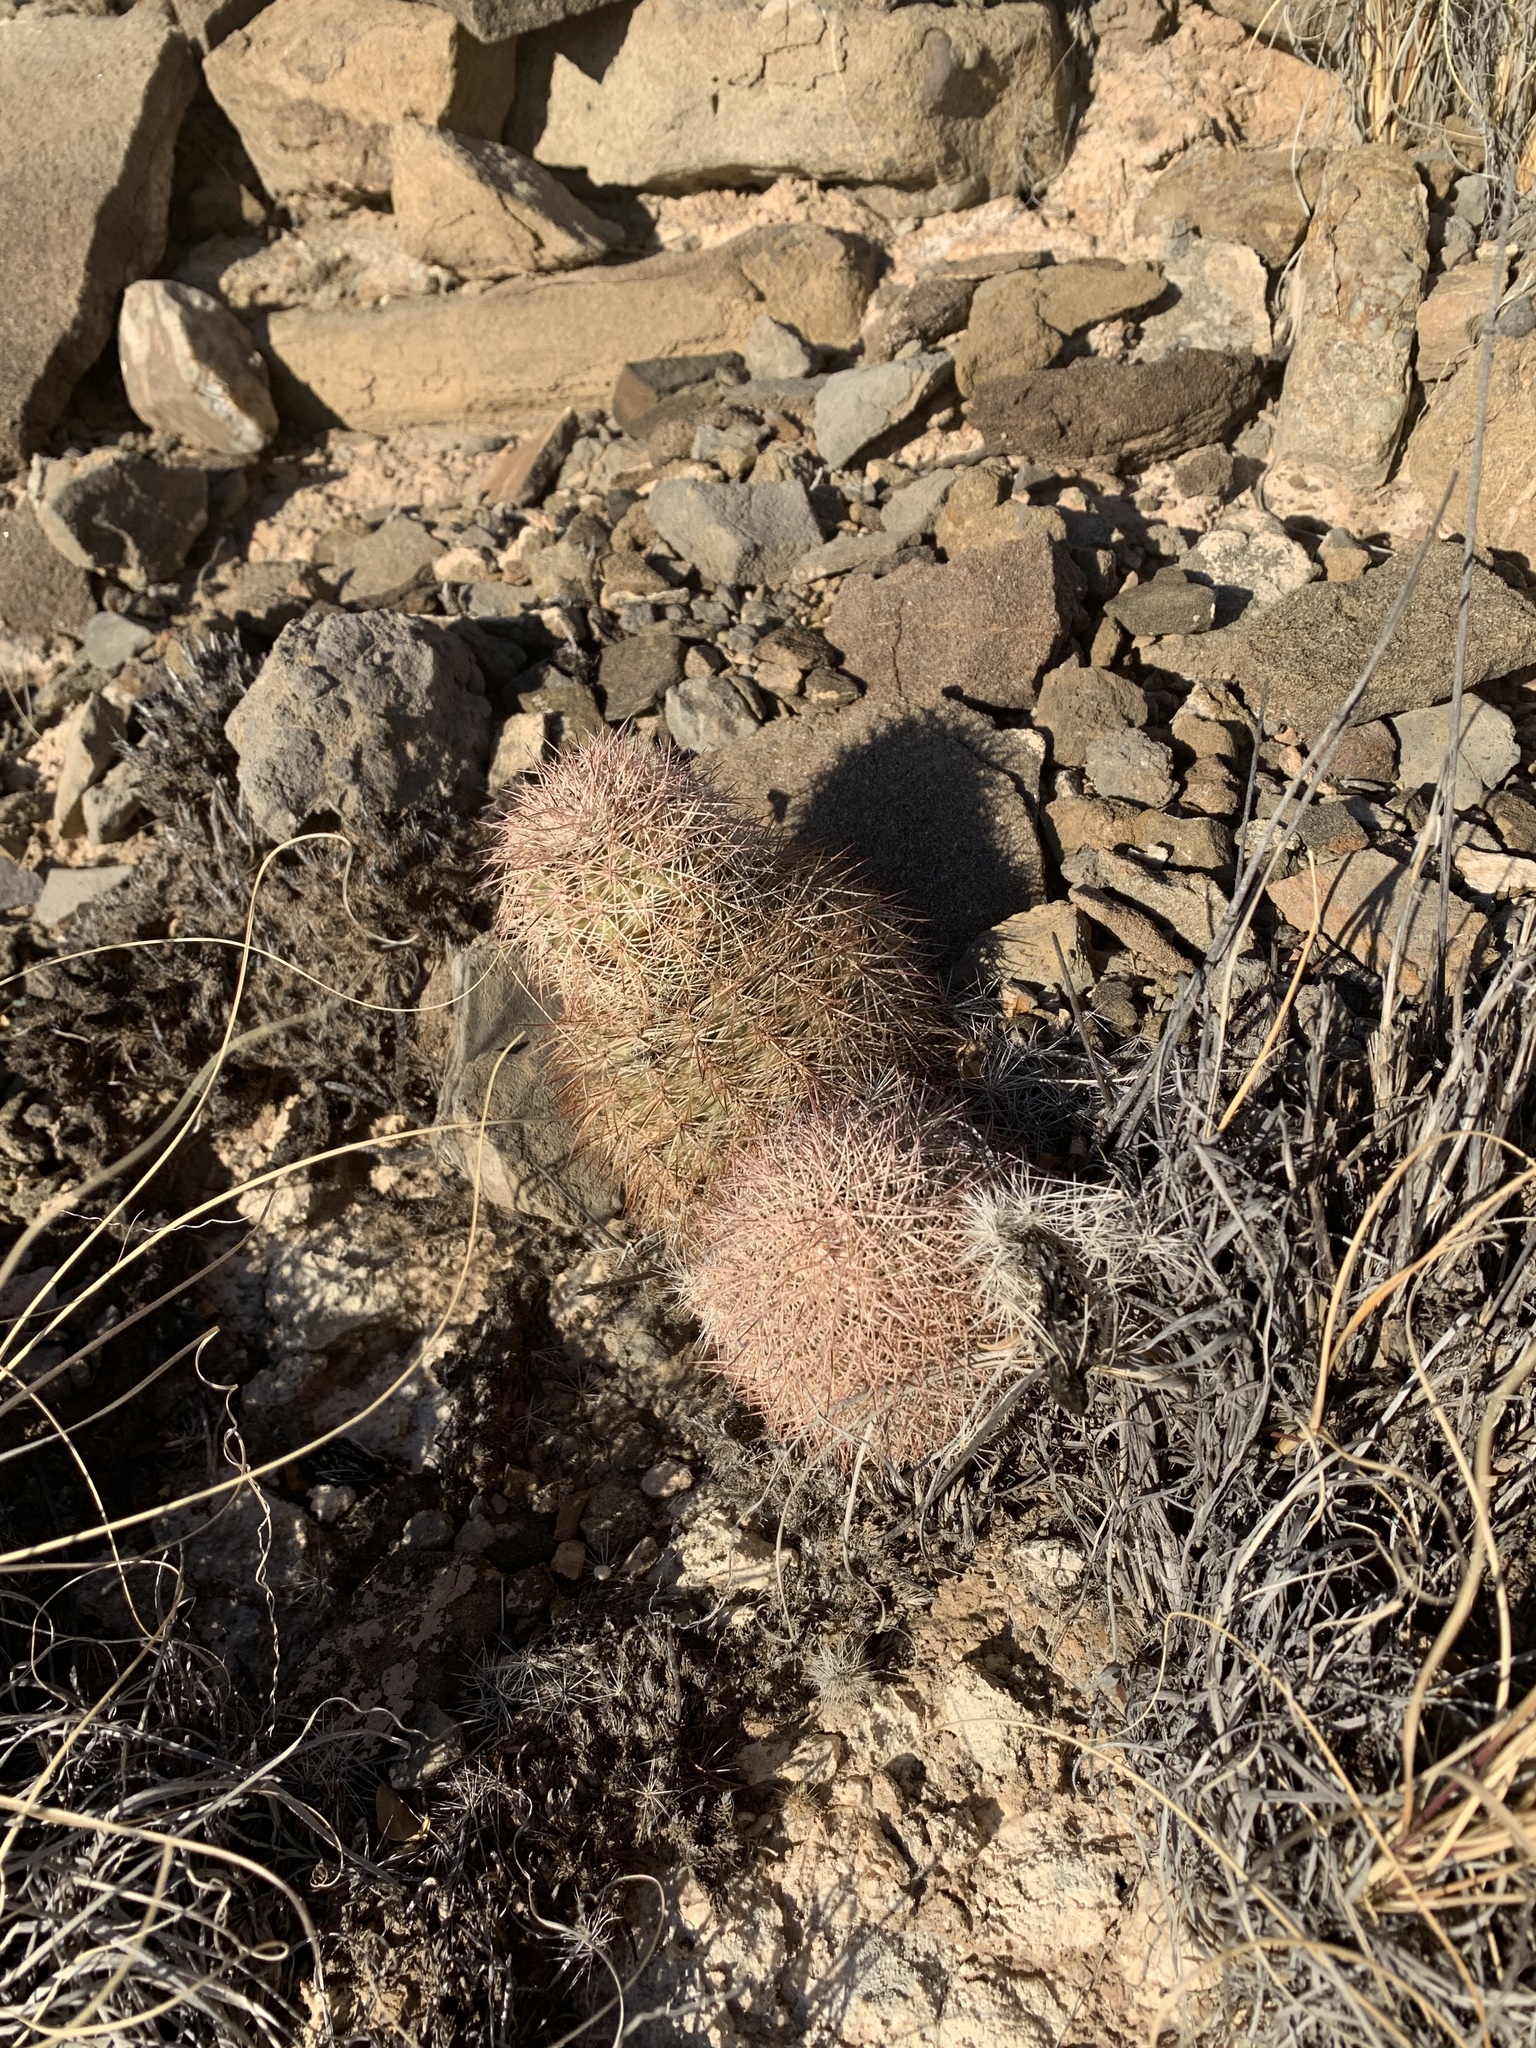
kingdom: Plantae
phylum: Tracheophyta
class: Magnoliopsida
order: Caryophyllales
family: Cactaceae
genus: Echinocereus
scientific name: Echinocereus dasyacanthus
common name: Spiny hedgehog cactus
